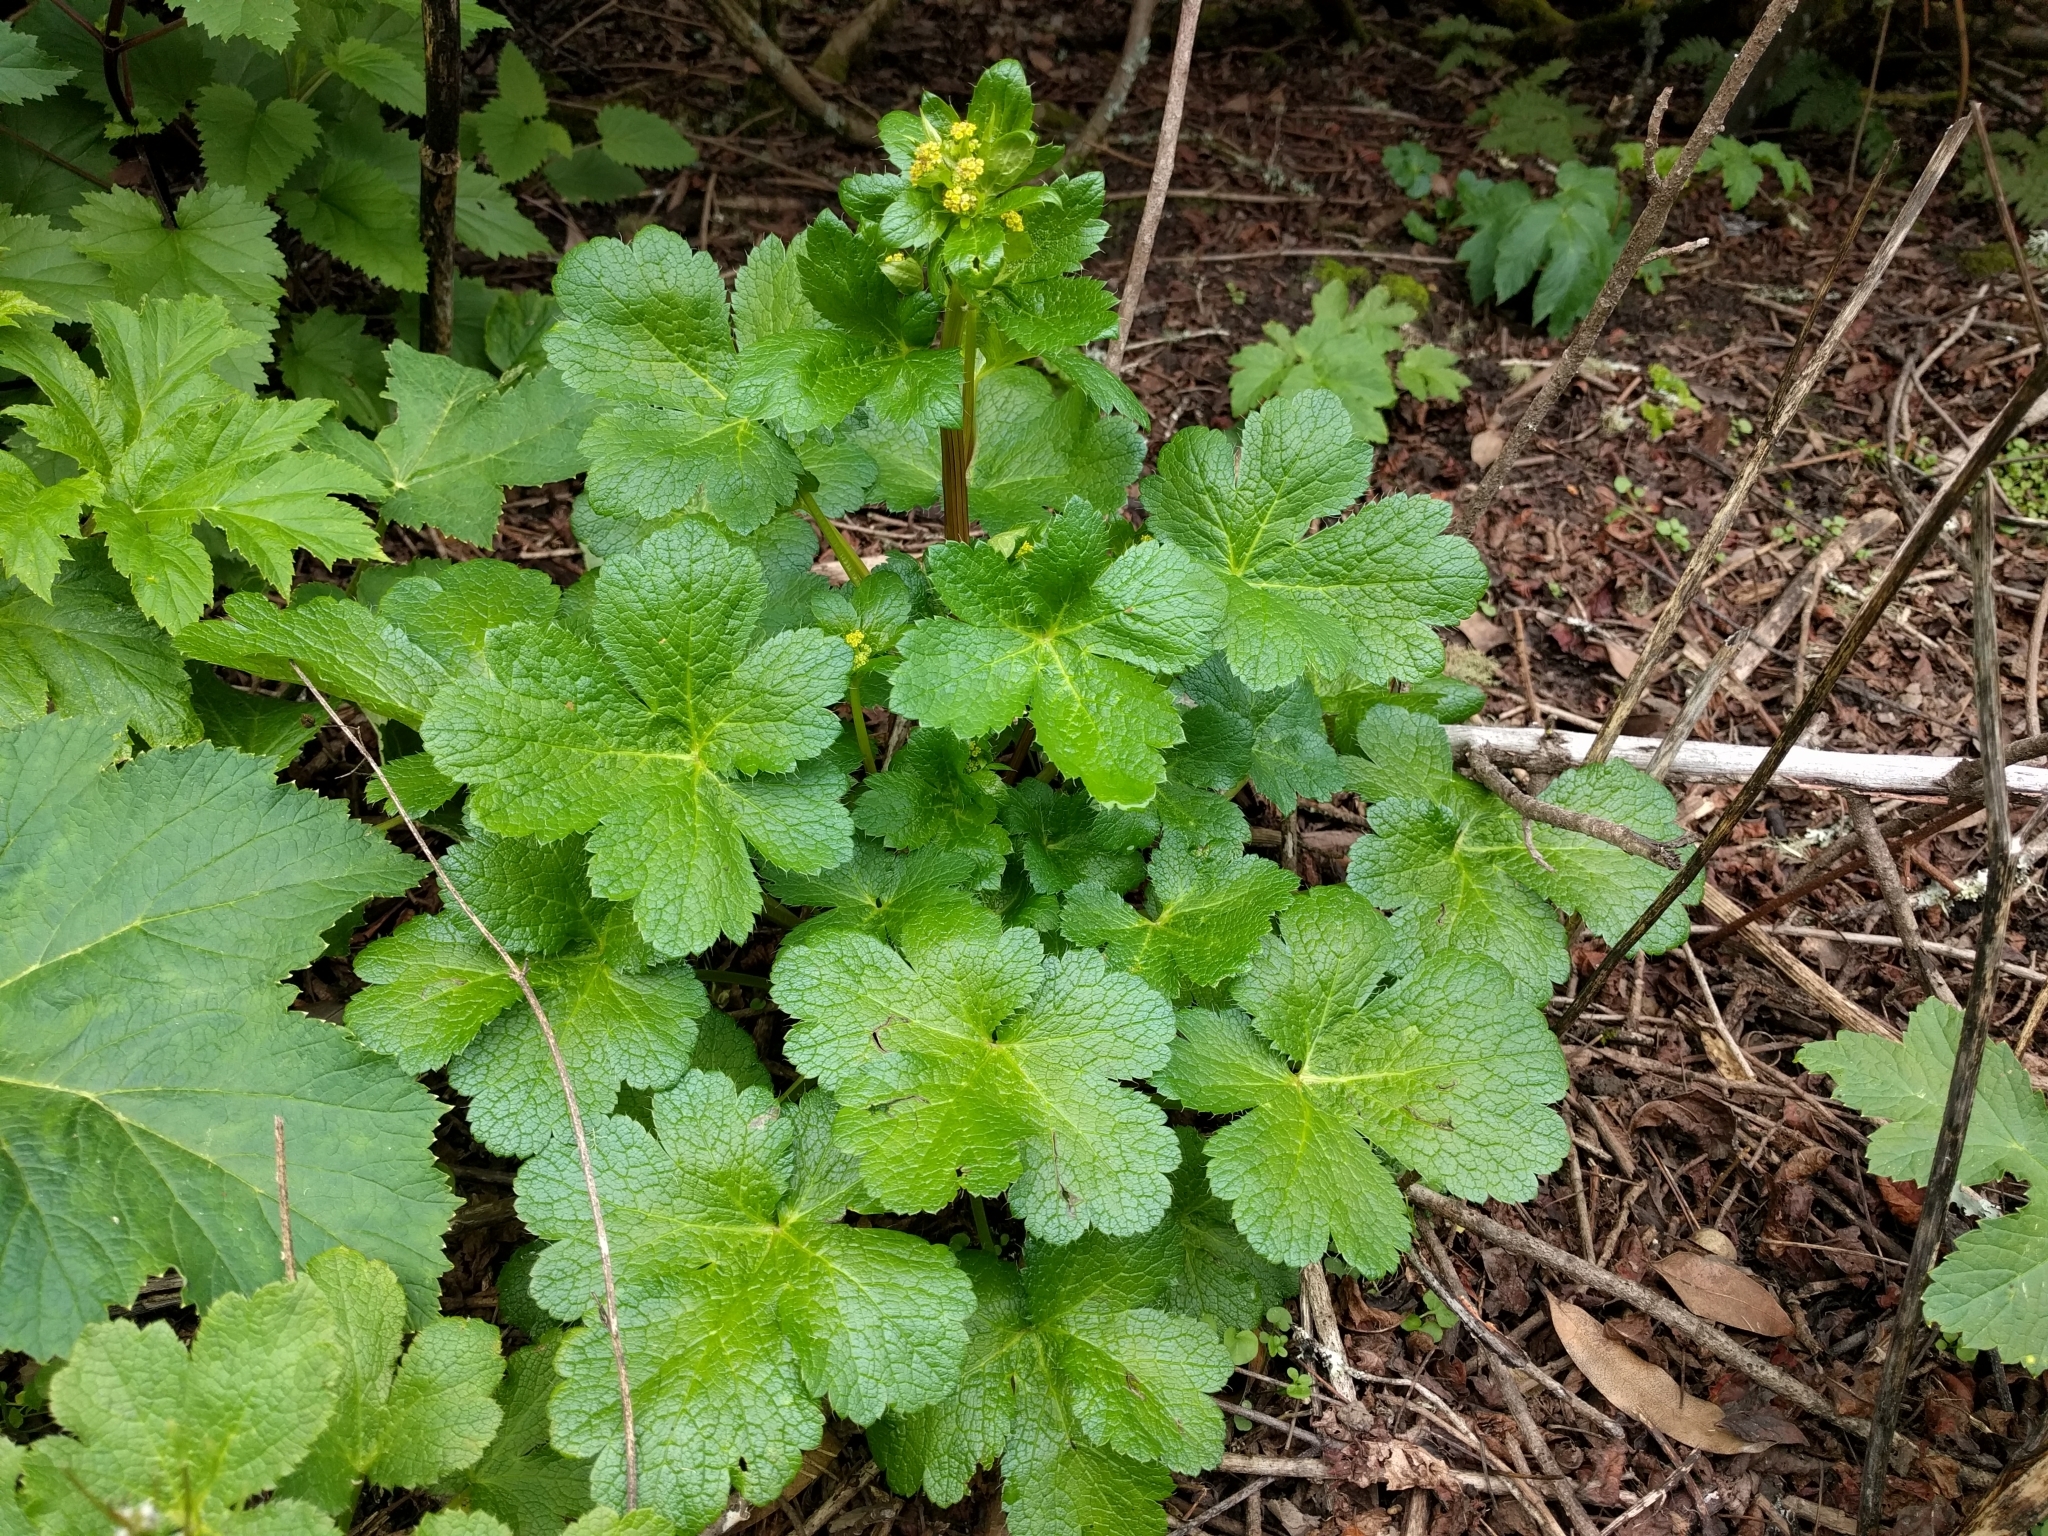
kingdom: Plantae
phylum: Tracheophyta
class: Magnoliopsida
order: Apiales
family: Apiaceae
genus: Sanicula
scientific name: Sanicula crassicaulis
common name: Western snakeroot
